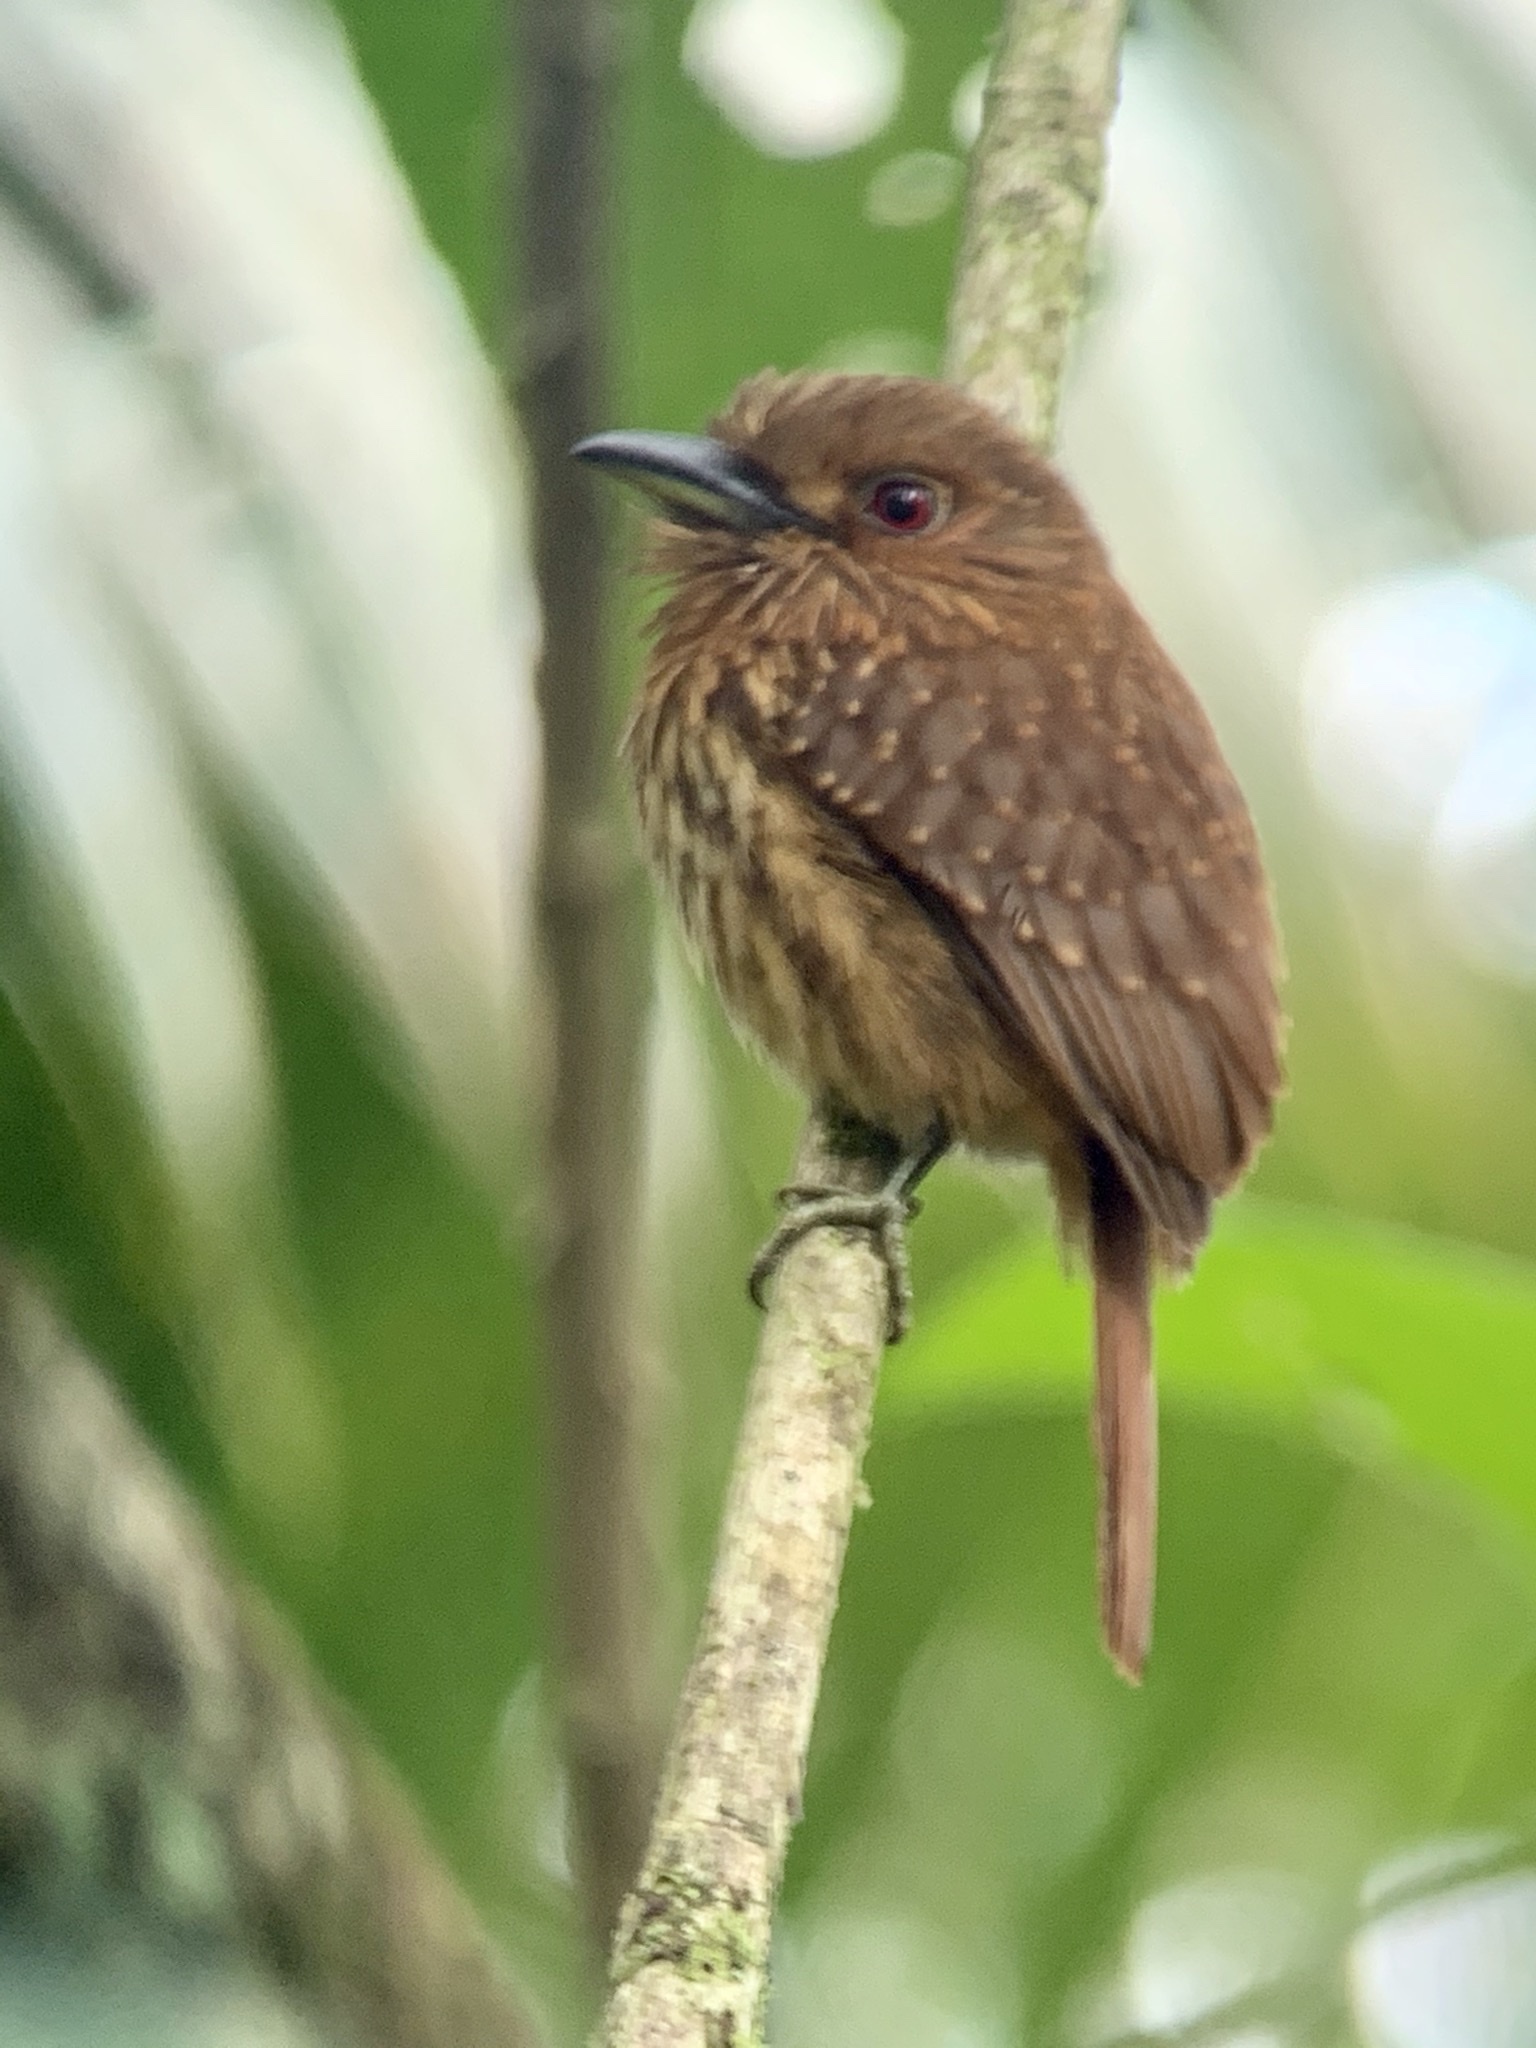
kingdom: Animalia
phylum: Chordata
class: Aves
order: Piciformes
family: Bucconidae
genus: Malacoptila
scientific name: Malacoptila panamensis
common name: White-whiskered puffbird
